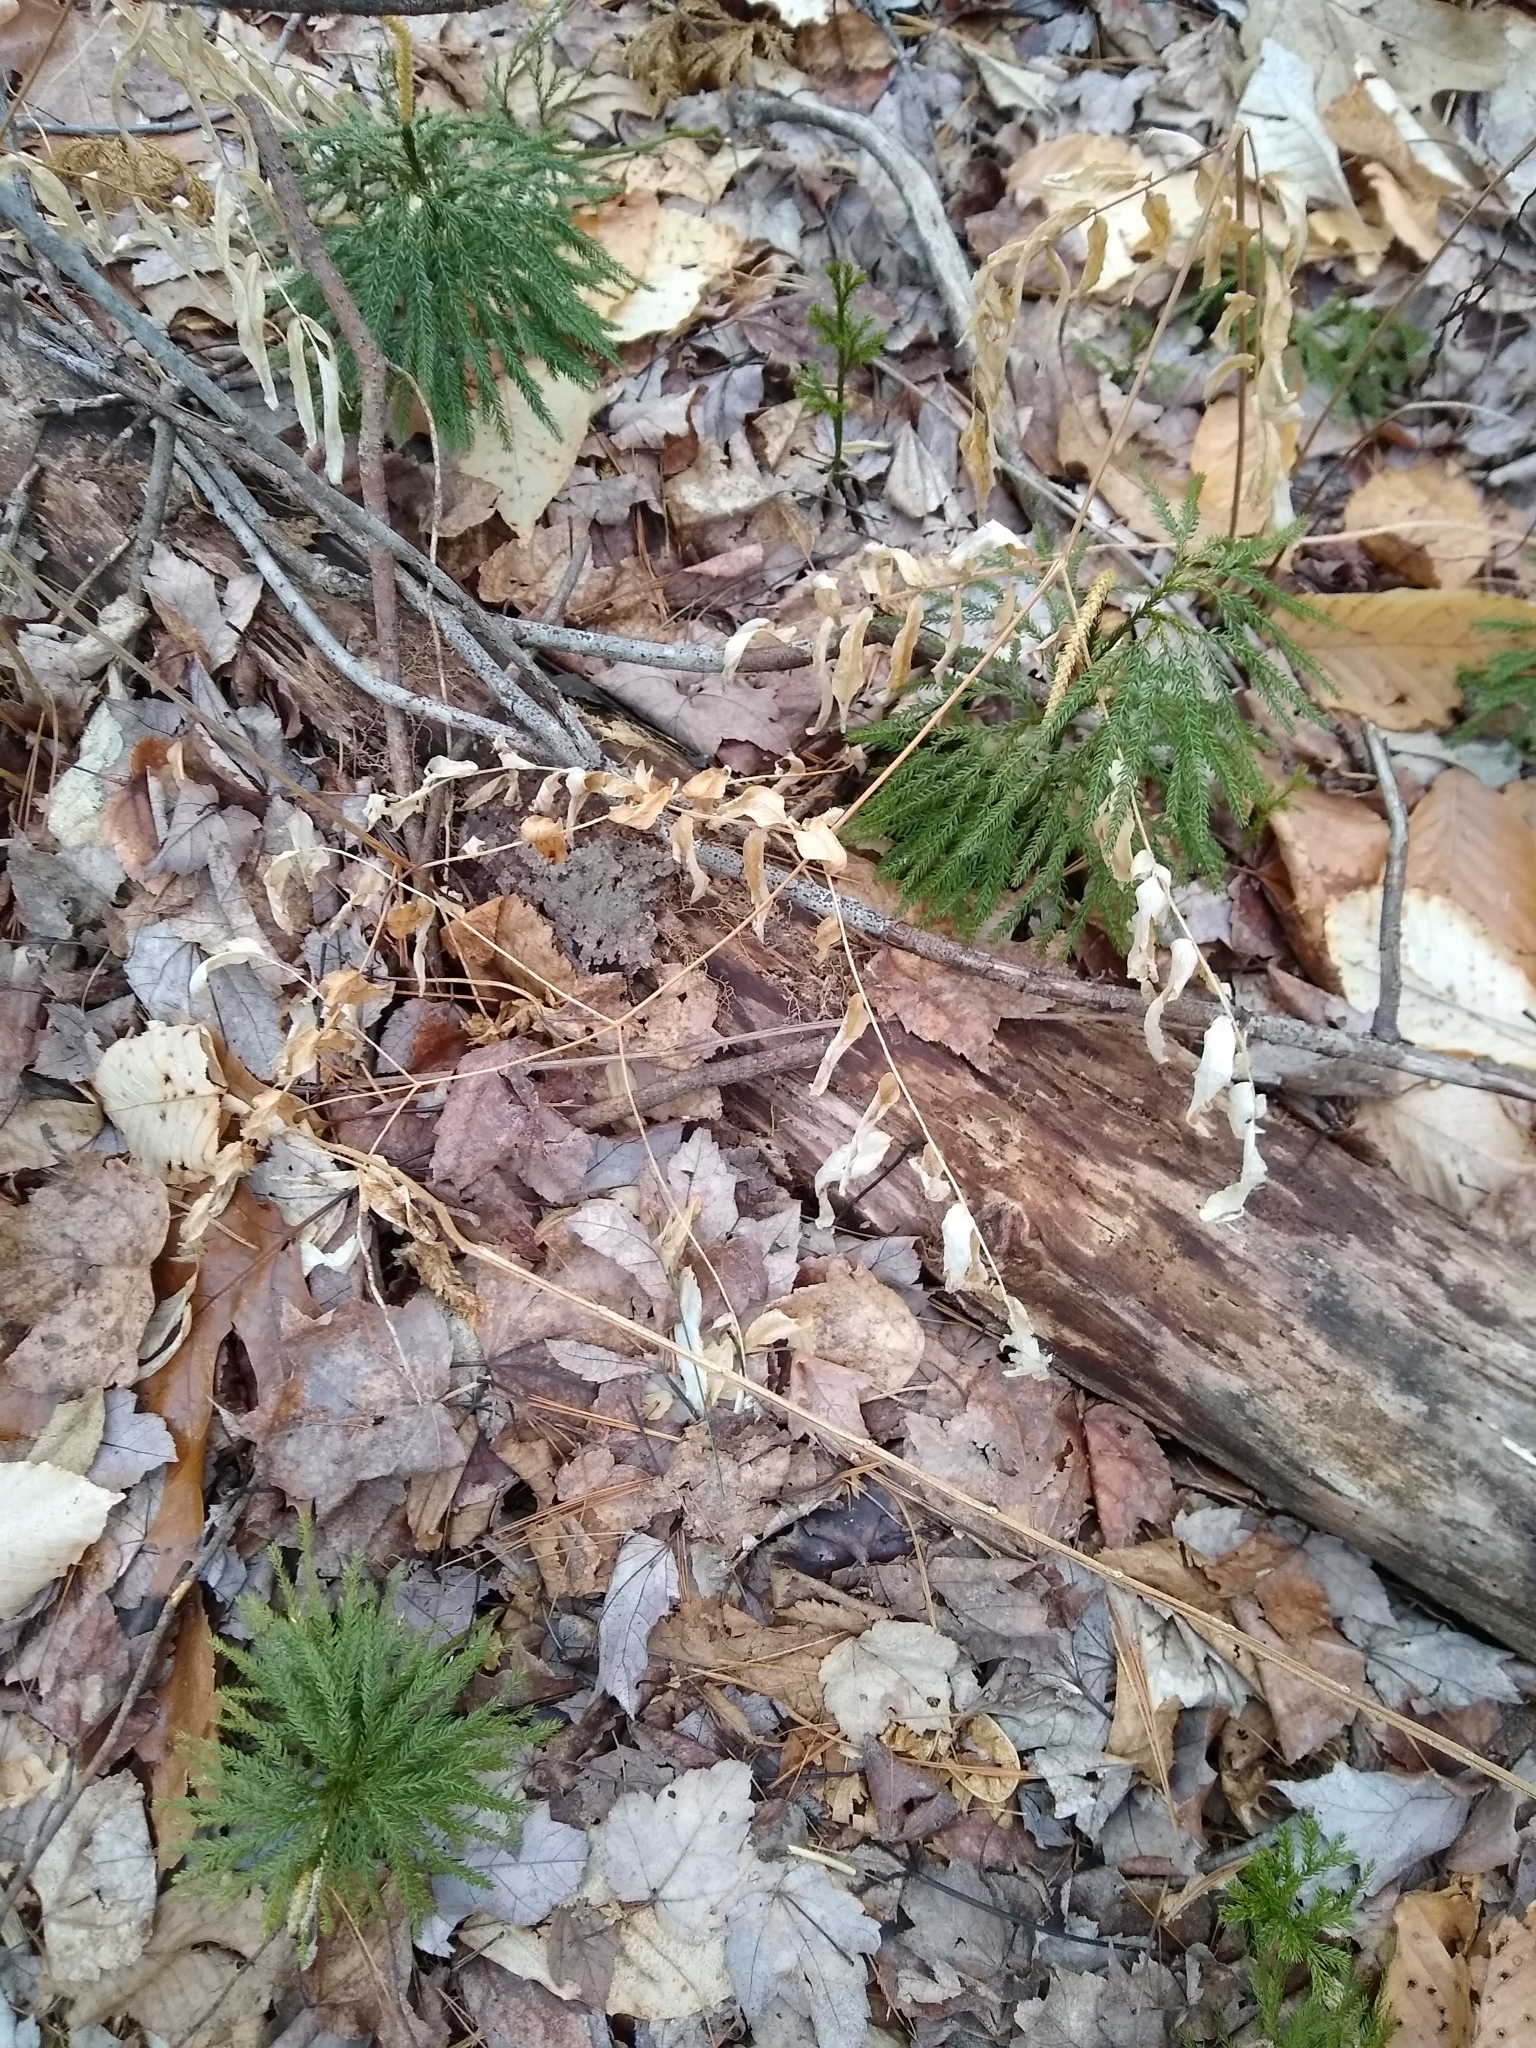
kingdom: Plantae
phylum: Tracheophyta
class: Polypodiopsida
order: Osmundales
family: Osmundaceae
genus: Osmunda
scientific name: Osmunda spectabilis
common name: American royal fern
